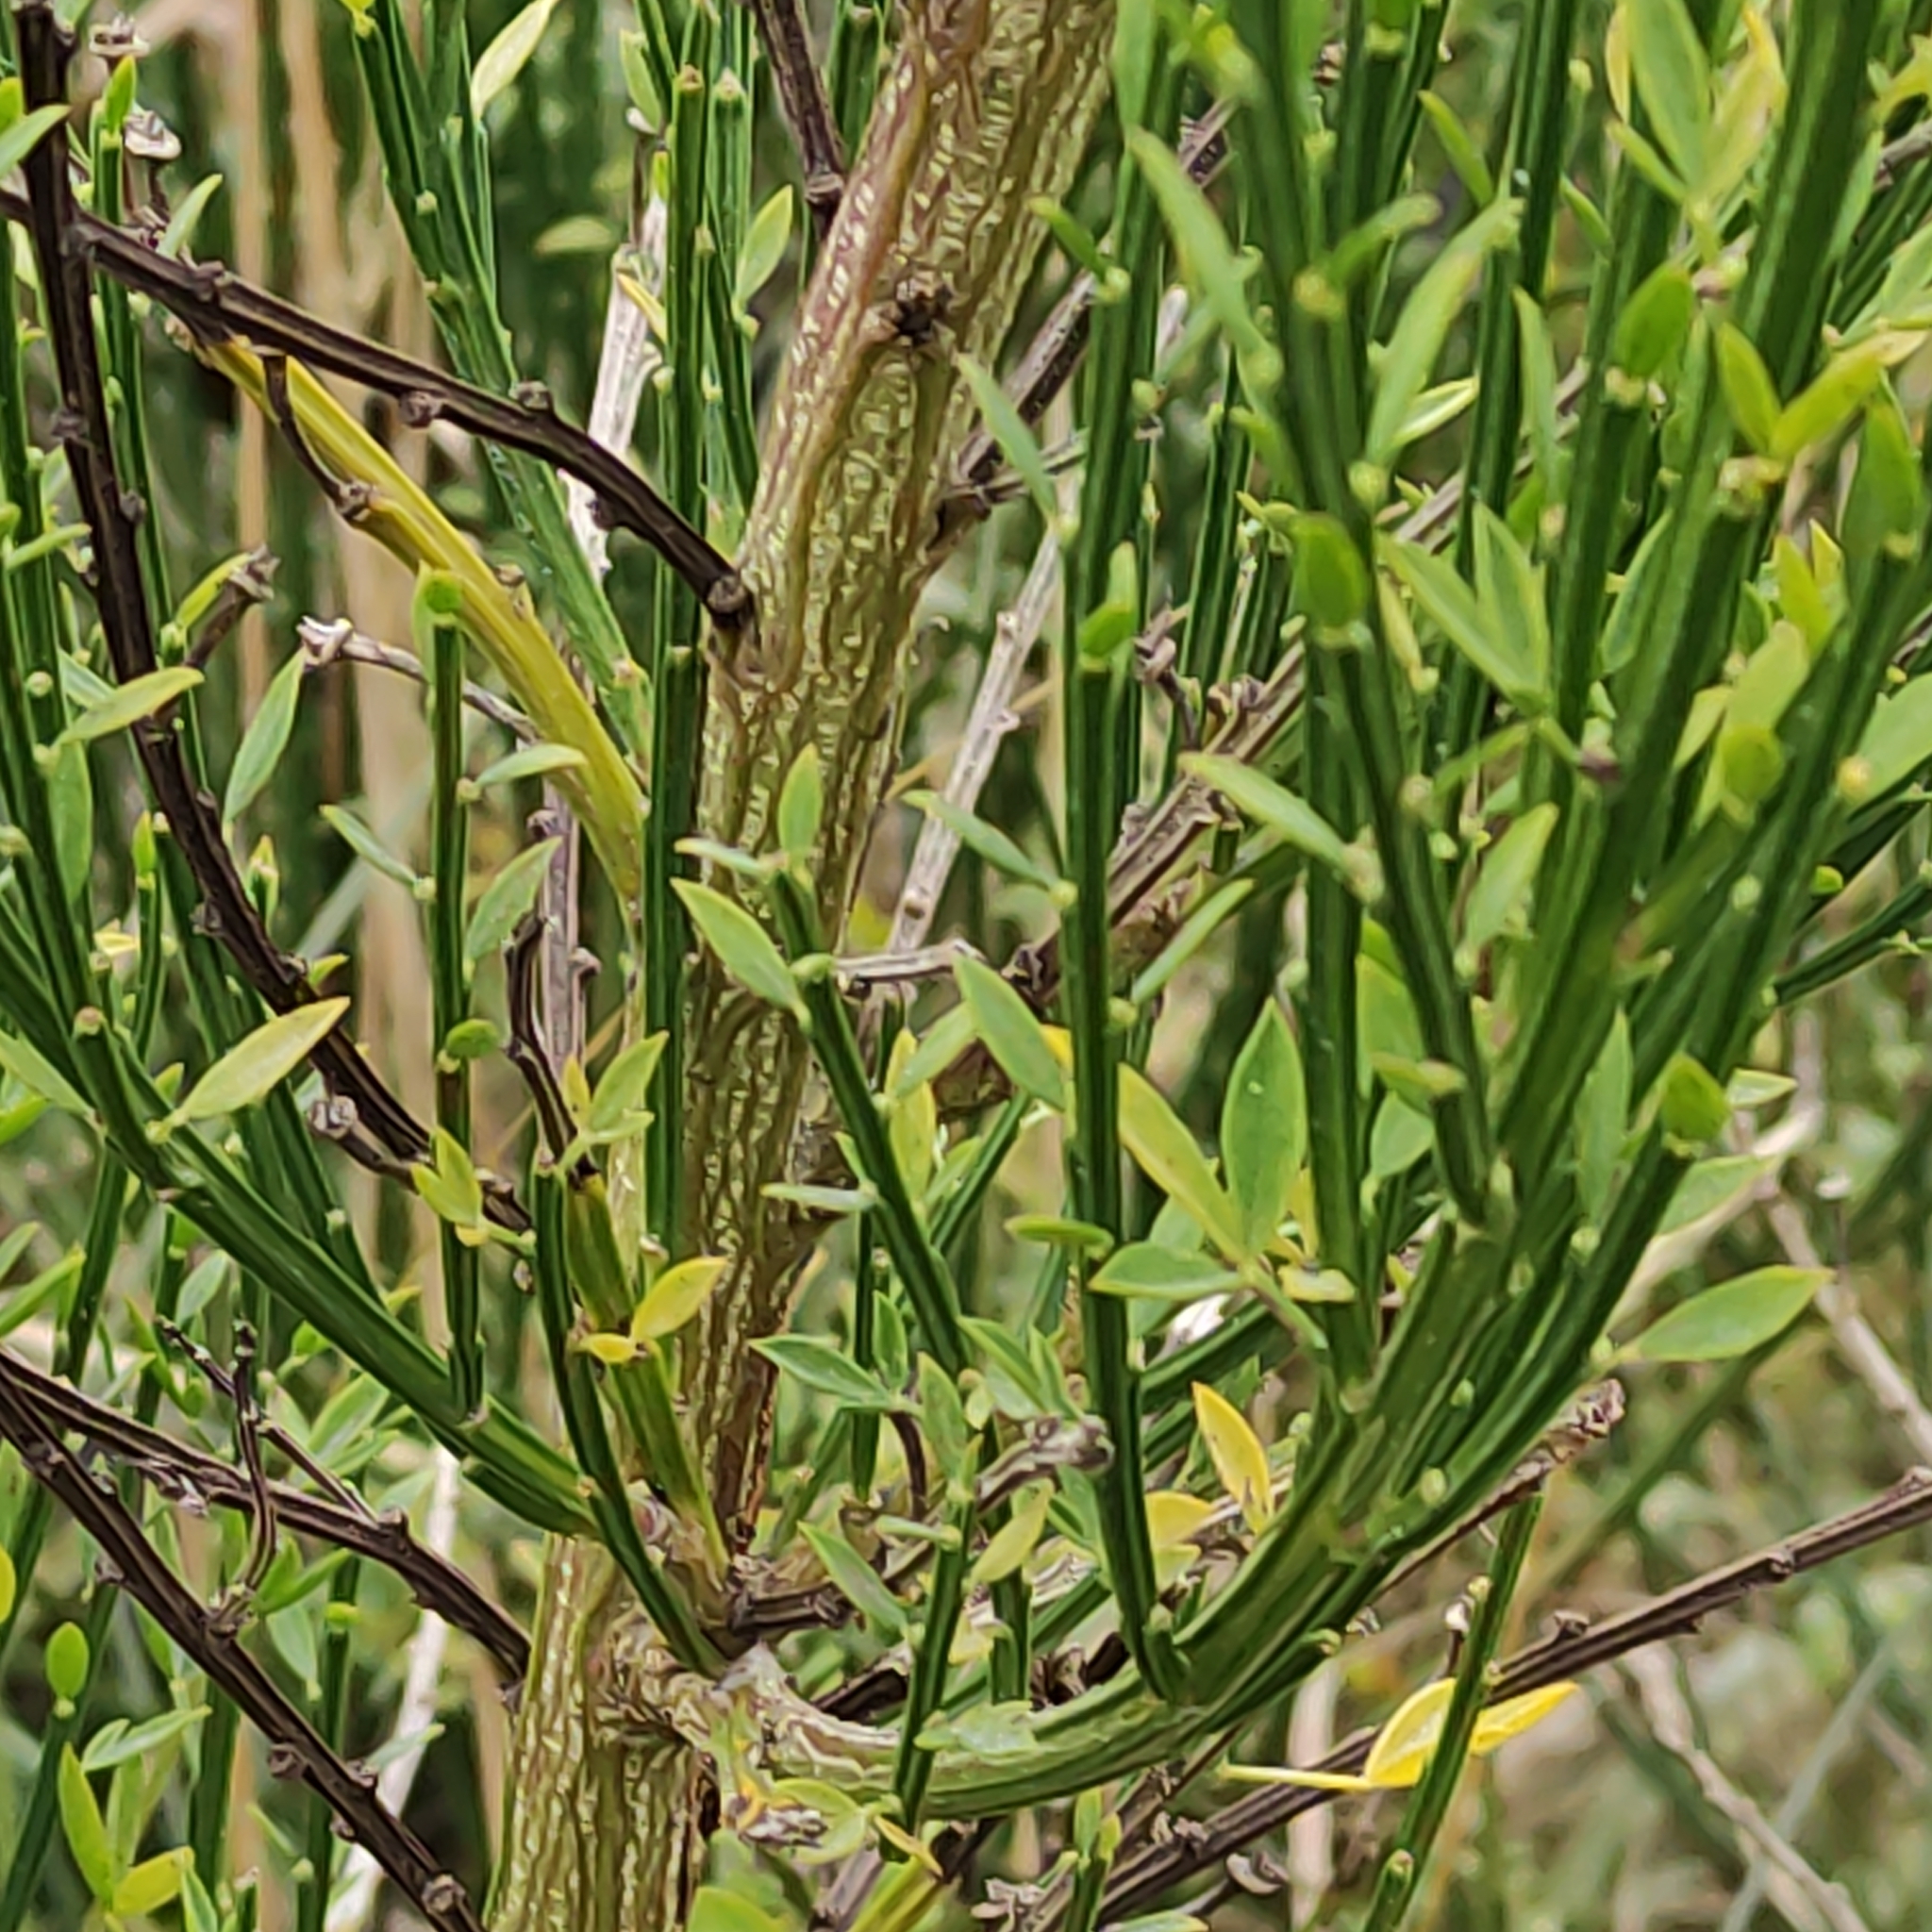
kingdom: Plantae
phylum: Tracheophyta
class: Magnoliopsida
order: Fabales
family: Fabaceae
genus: Cytisus
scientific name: Cytisus scoparius
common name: Scotch broom
